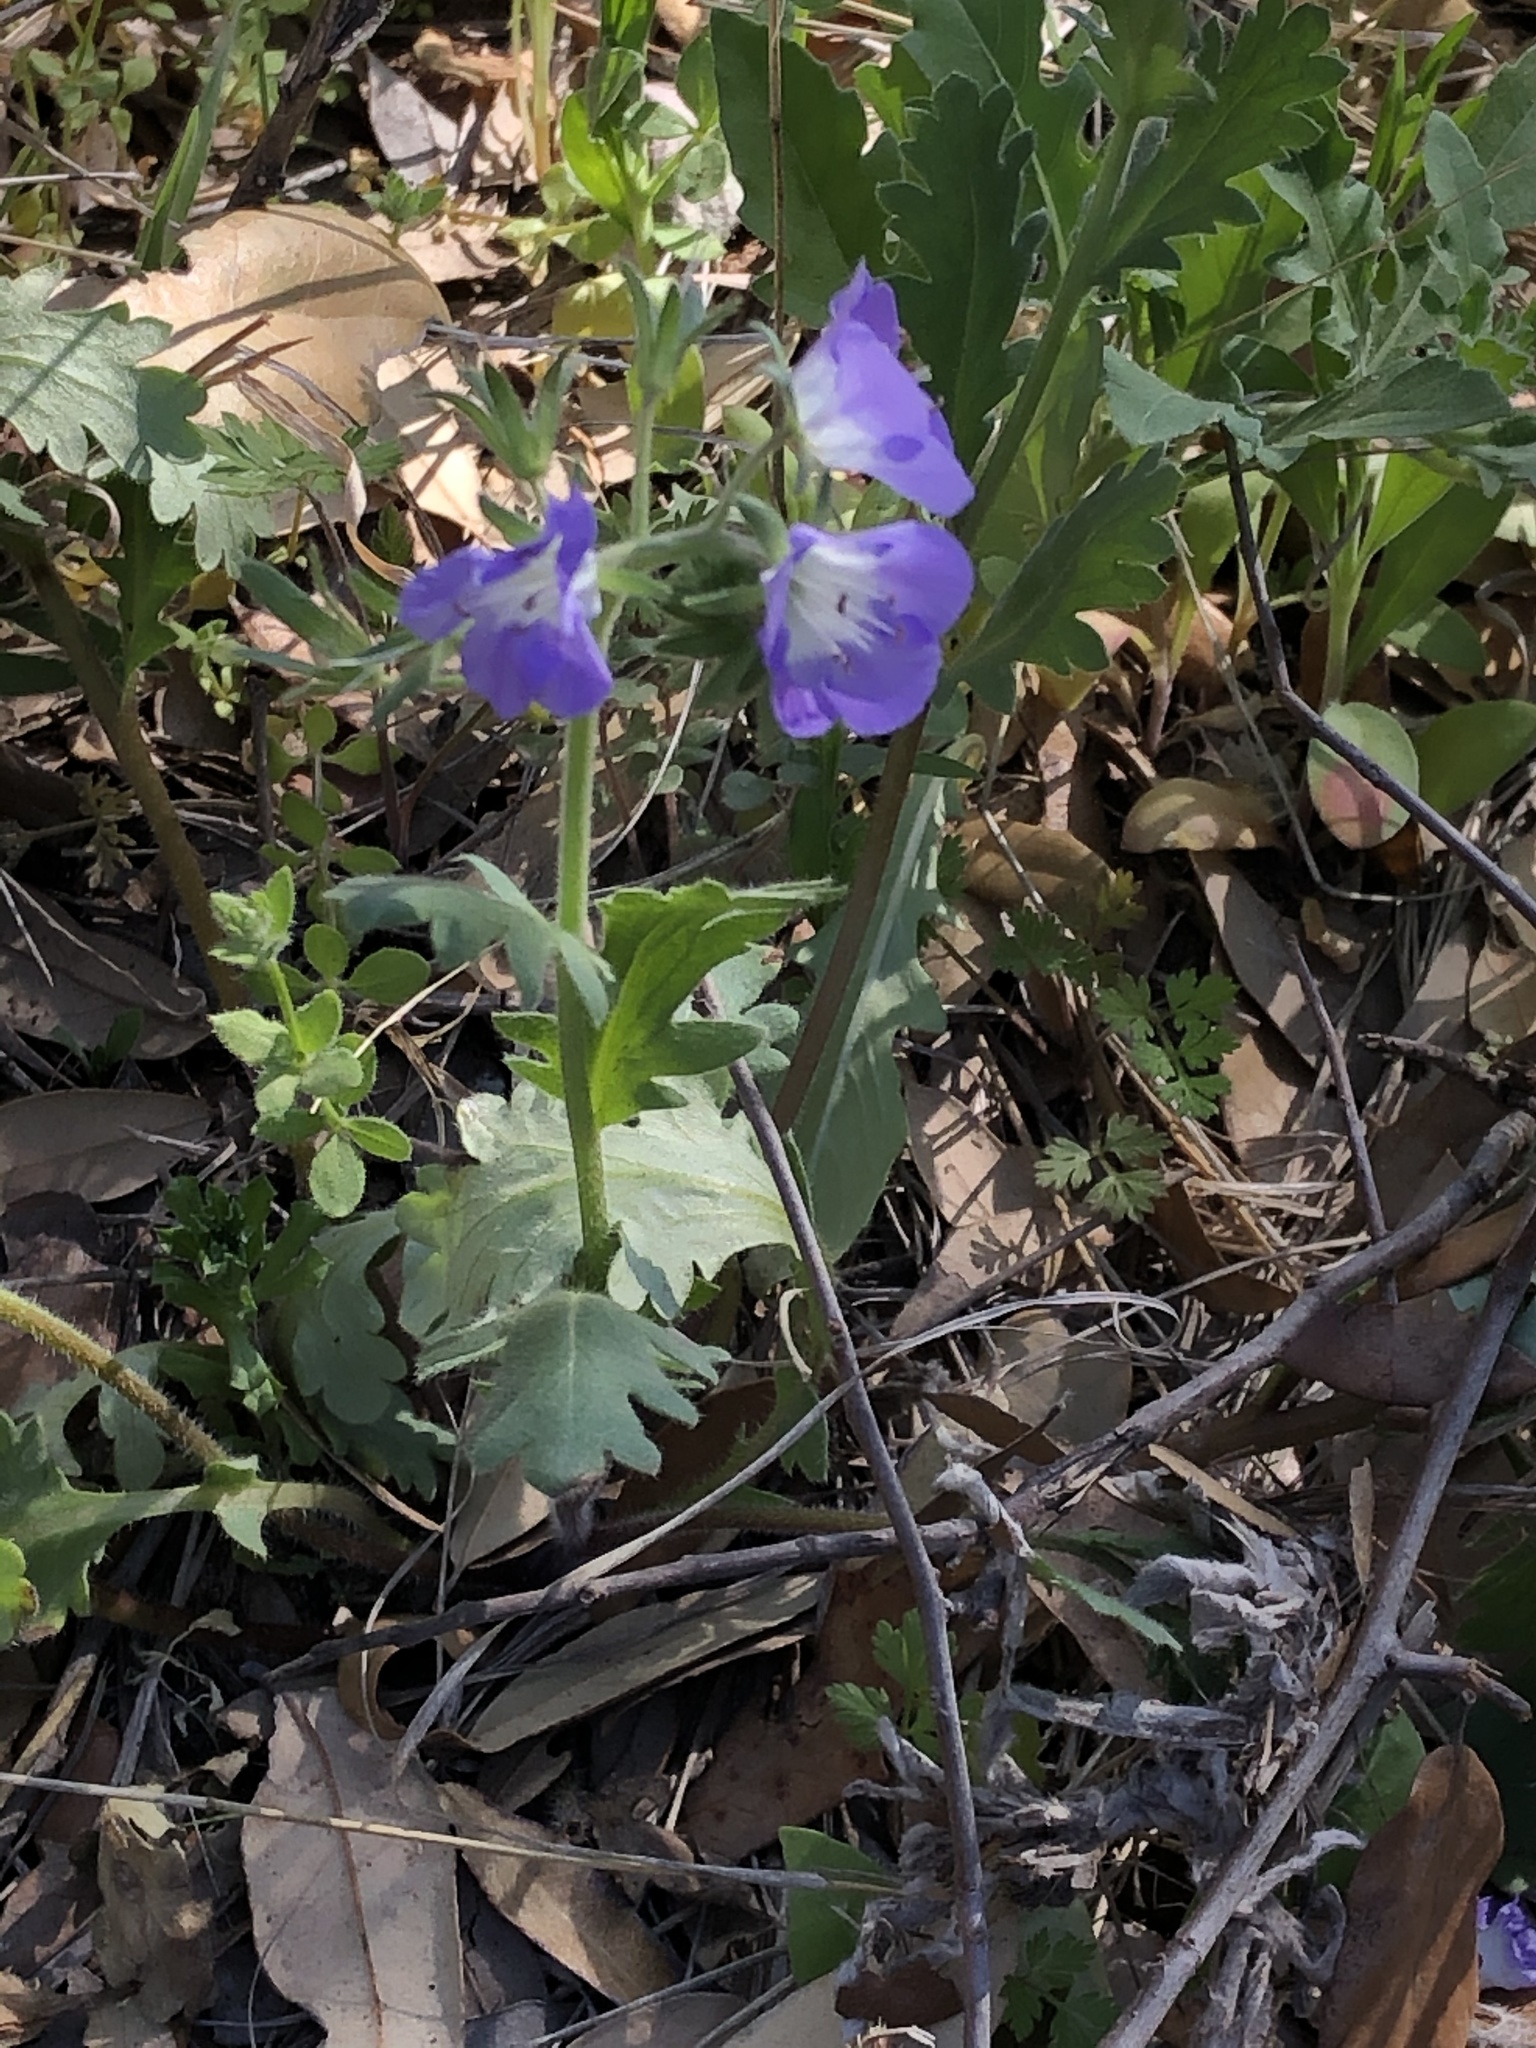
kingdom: Plantae
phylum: Tracheophyta
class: Magnoliopsida
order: Boraginales
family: Hydrophyllaceae
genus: Phacelia
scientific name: Phacelia patuliflora
